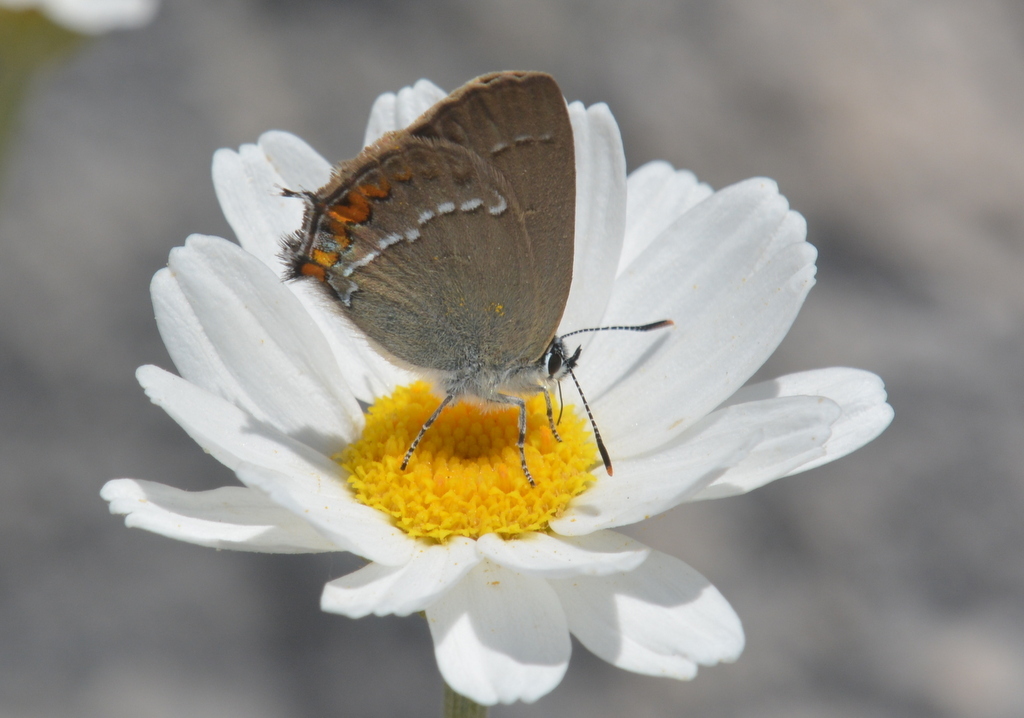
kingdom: Animalia
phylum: Arthropoda
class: Insecta
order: Lepidoptera
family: Lycaenidae
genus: Strymon
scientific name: Strymon acaciae
